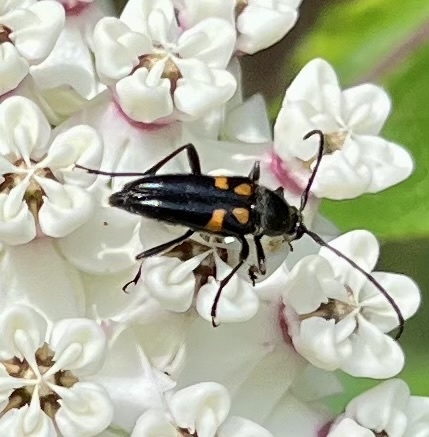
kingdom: Animalia
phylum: Arthropoda
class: Insecta
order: Coleoptera
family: Cerambycidae
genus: Typocerus
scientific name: Typocerus lunulatus
